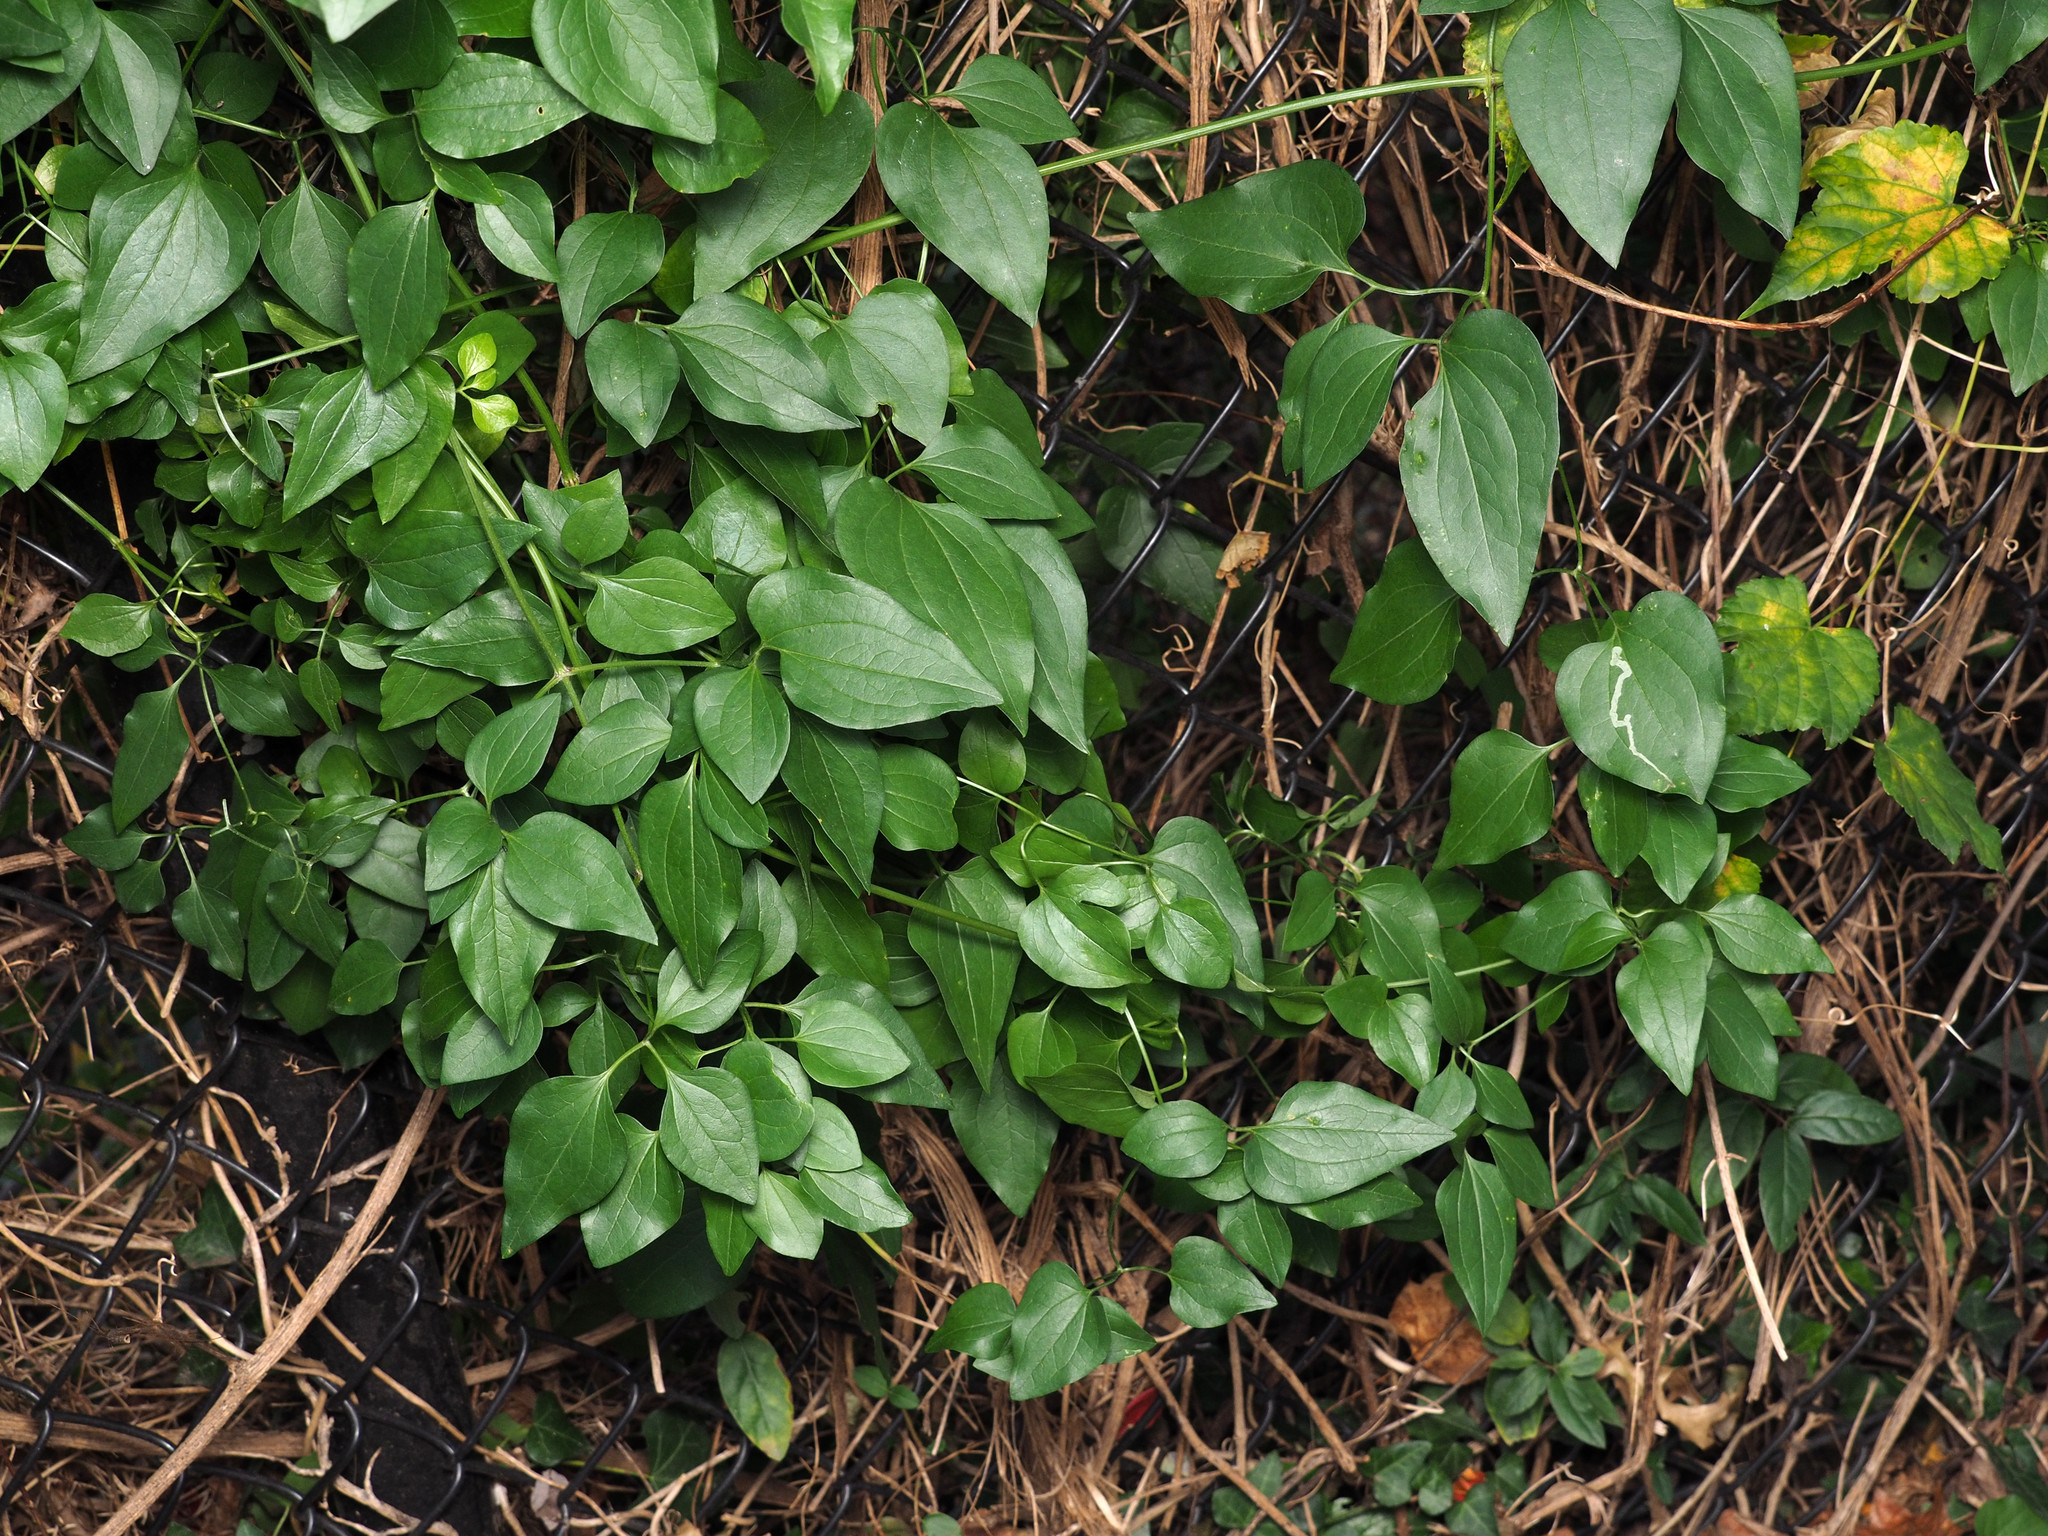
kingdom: Plantae
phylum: Tracheophyta
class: Magnoliopsida
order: Ranunculales
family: Ranunculaceae
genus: Clematis
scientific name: Clematis terniflora
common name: Sweet autumn clematis
